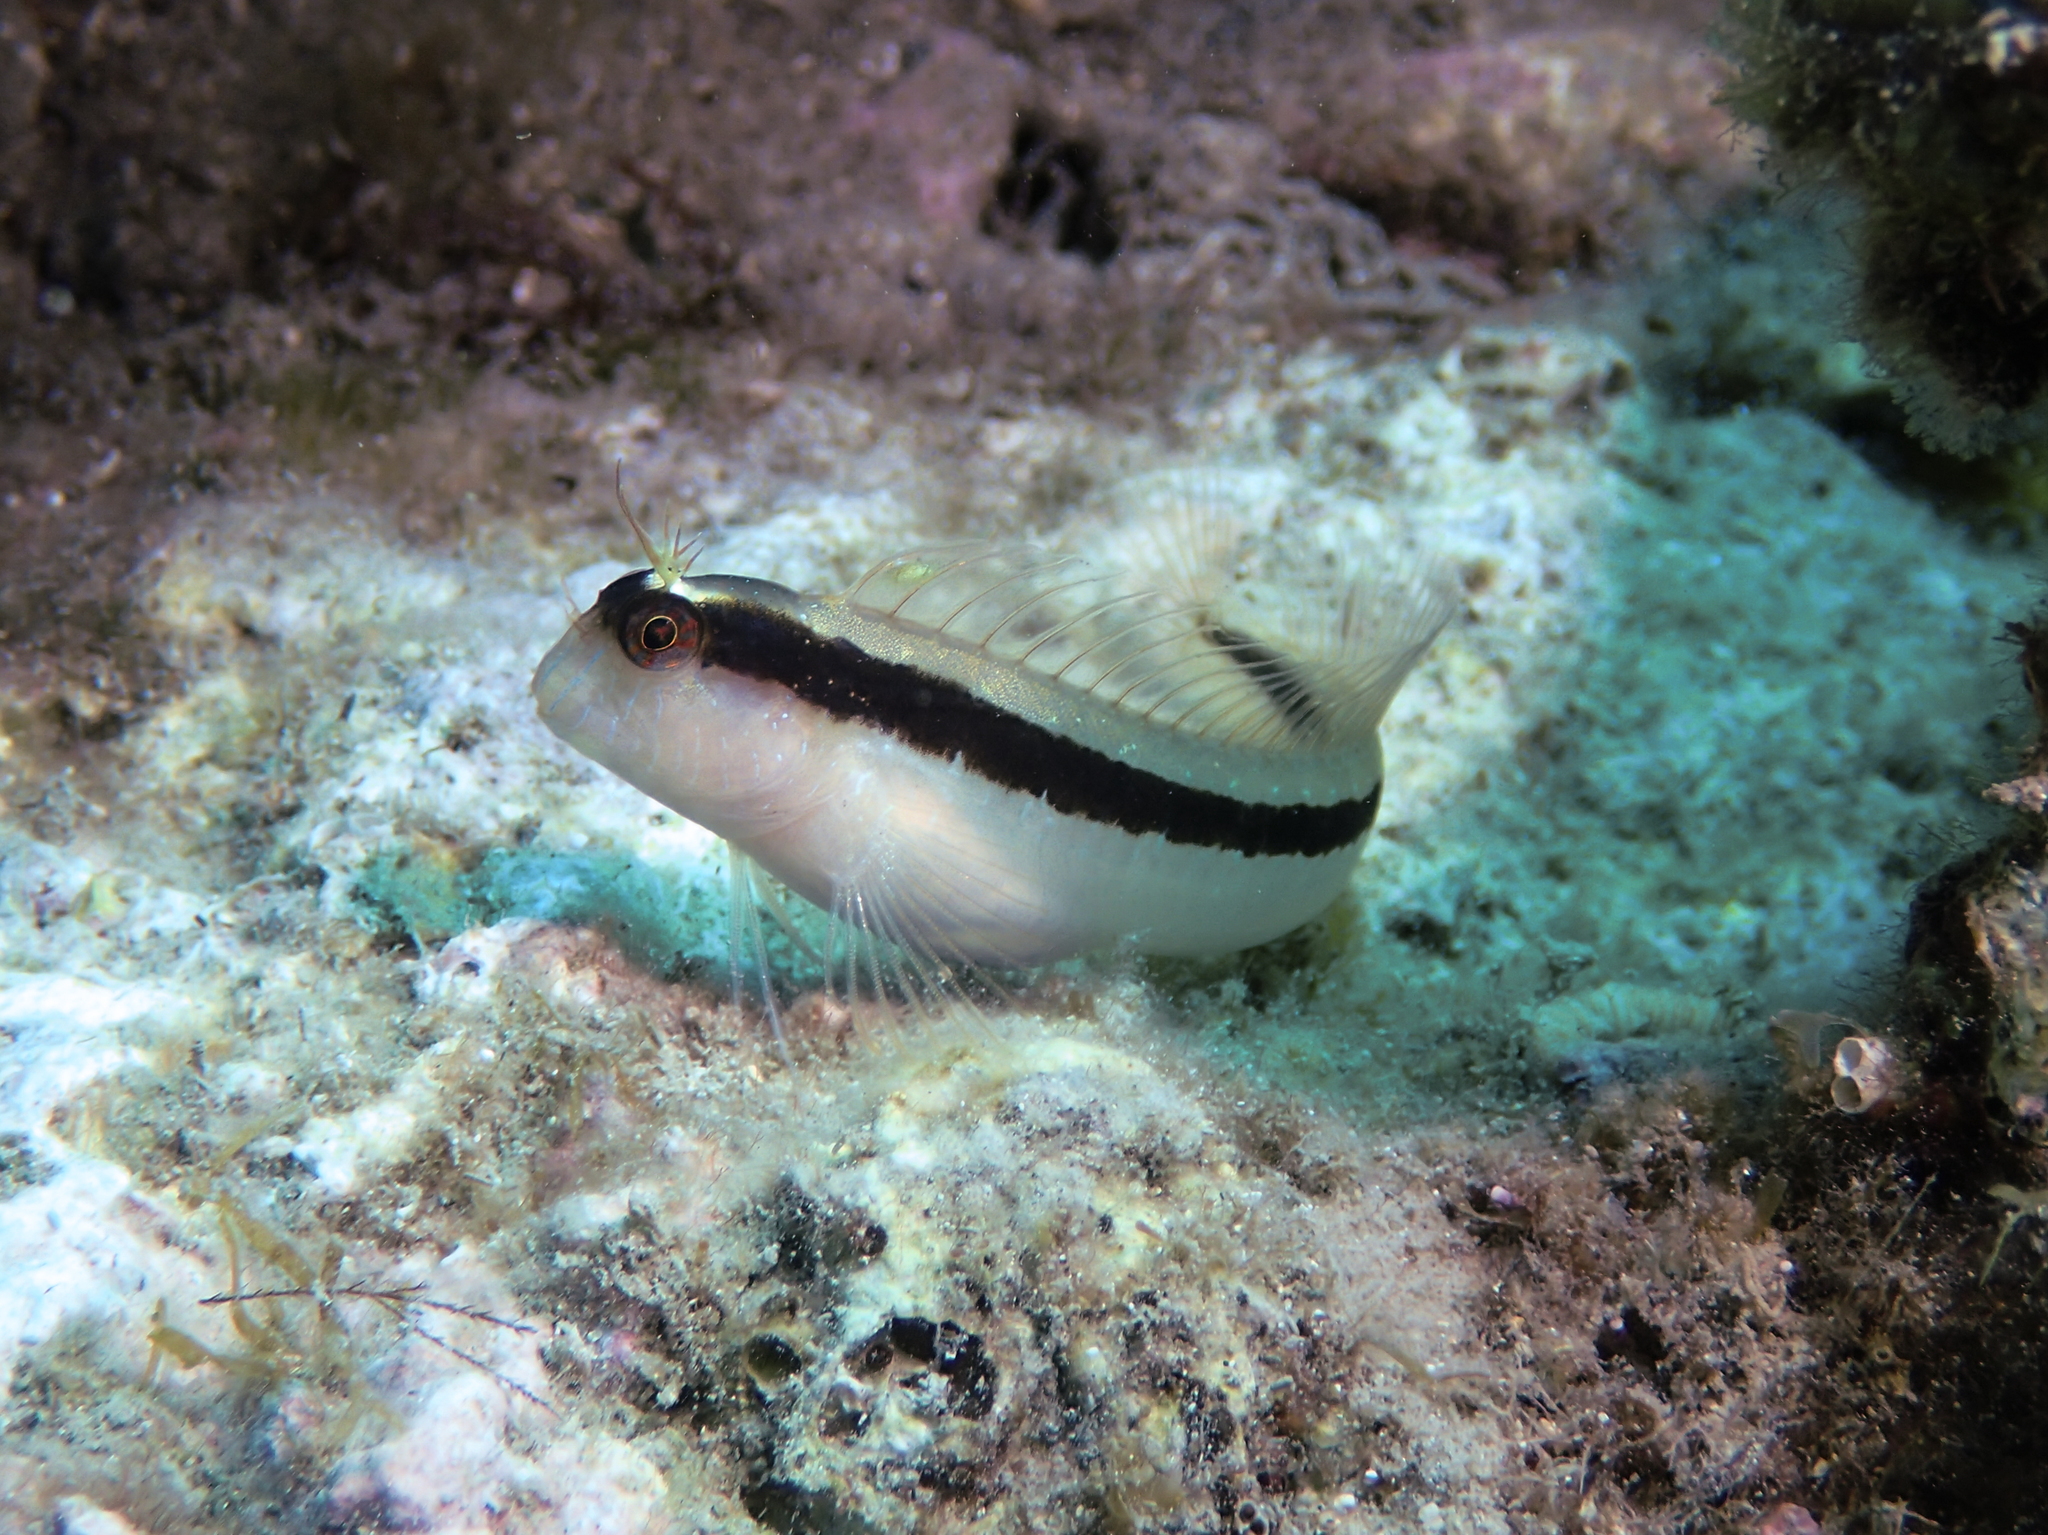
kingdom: Animalia
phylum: Chordata
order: Perciformes
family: Blenniidae
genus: Parablennius
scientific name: Parablennius rouxi
